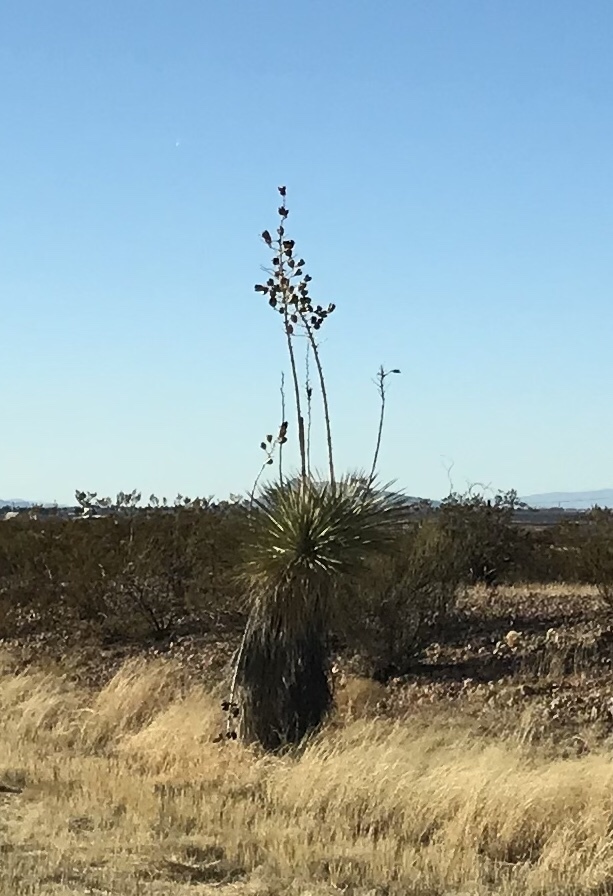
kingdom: Plantae
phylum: Tracheophyta
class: Liliopsida
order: Asparagales
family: Asparagaceae
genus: Yucca
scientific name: Yucca elata
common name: Palmella
